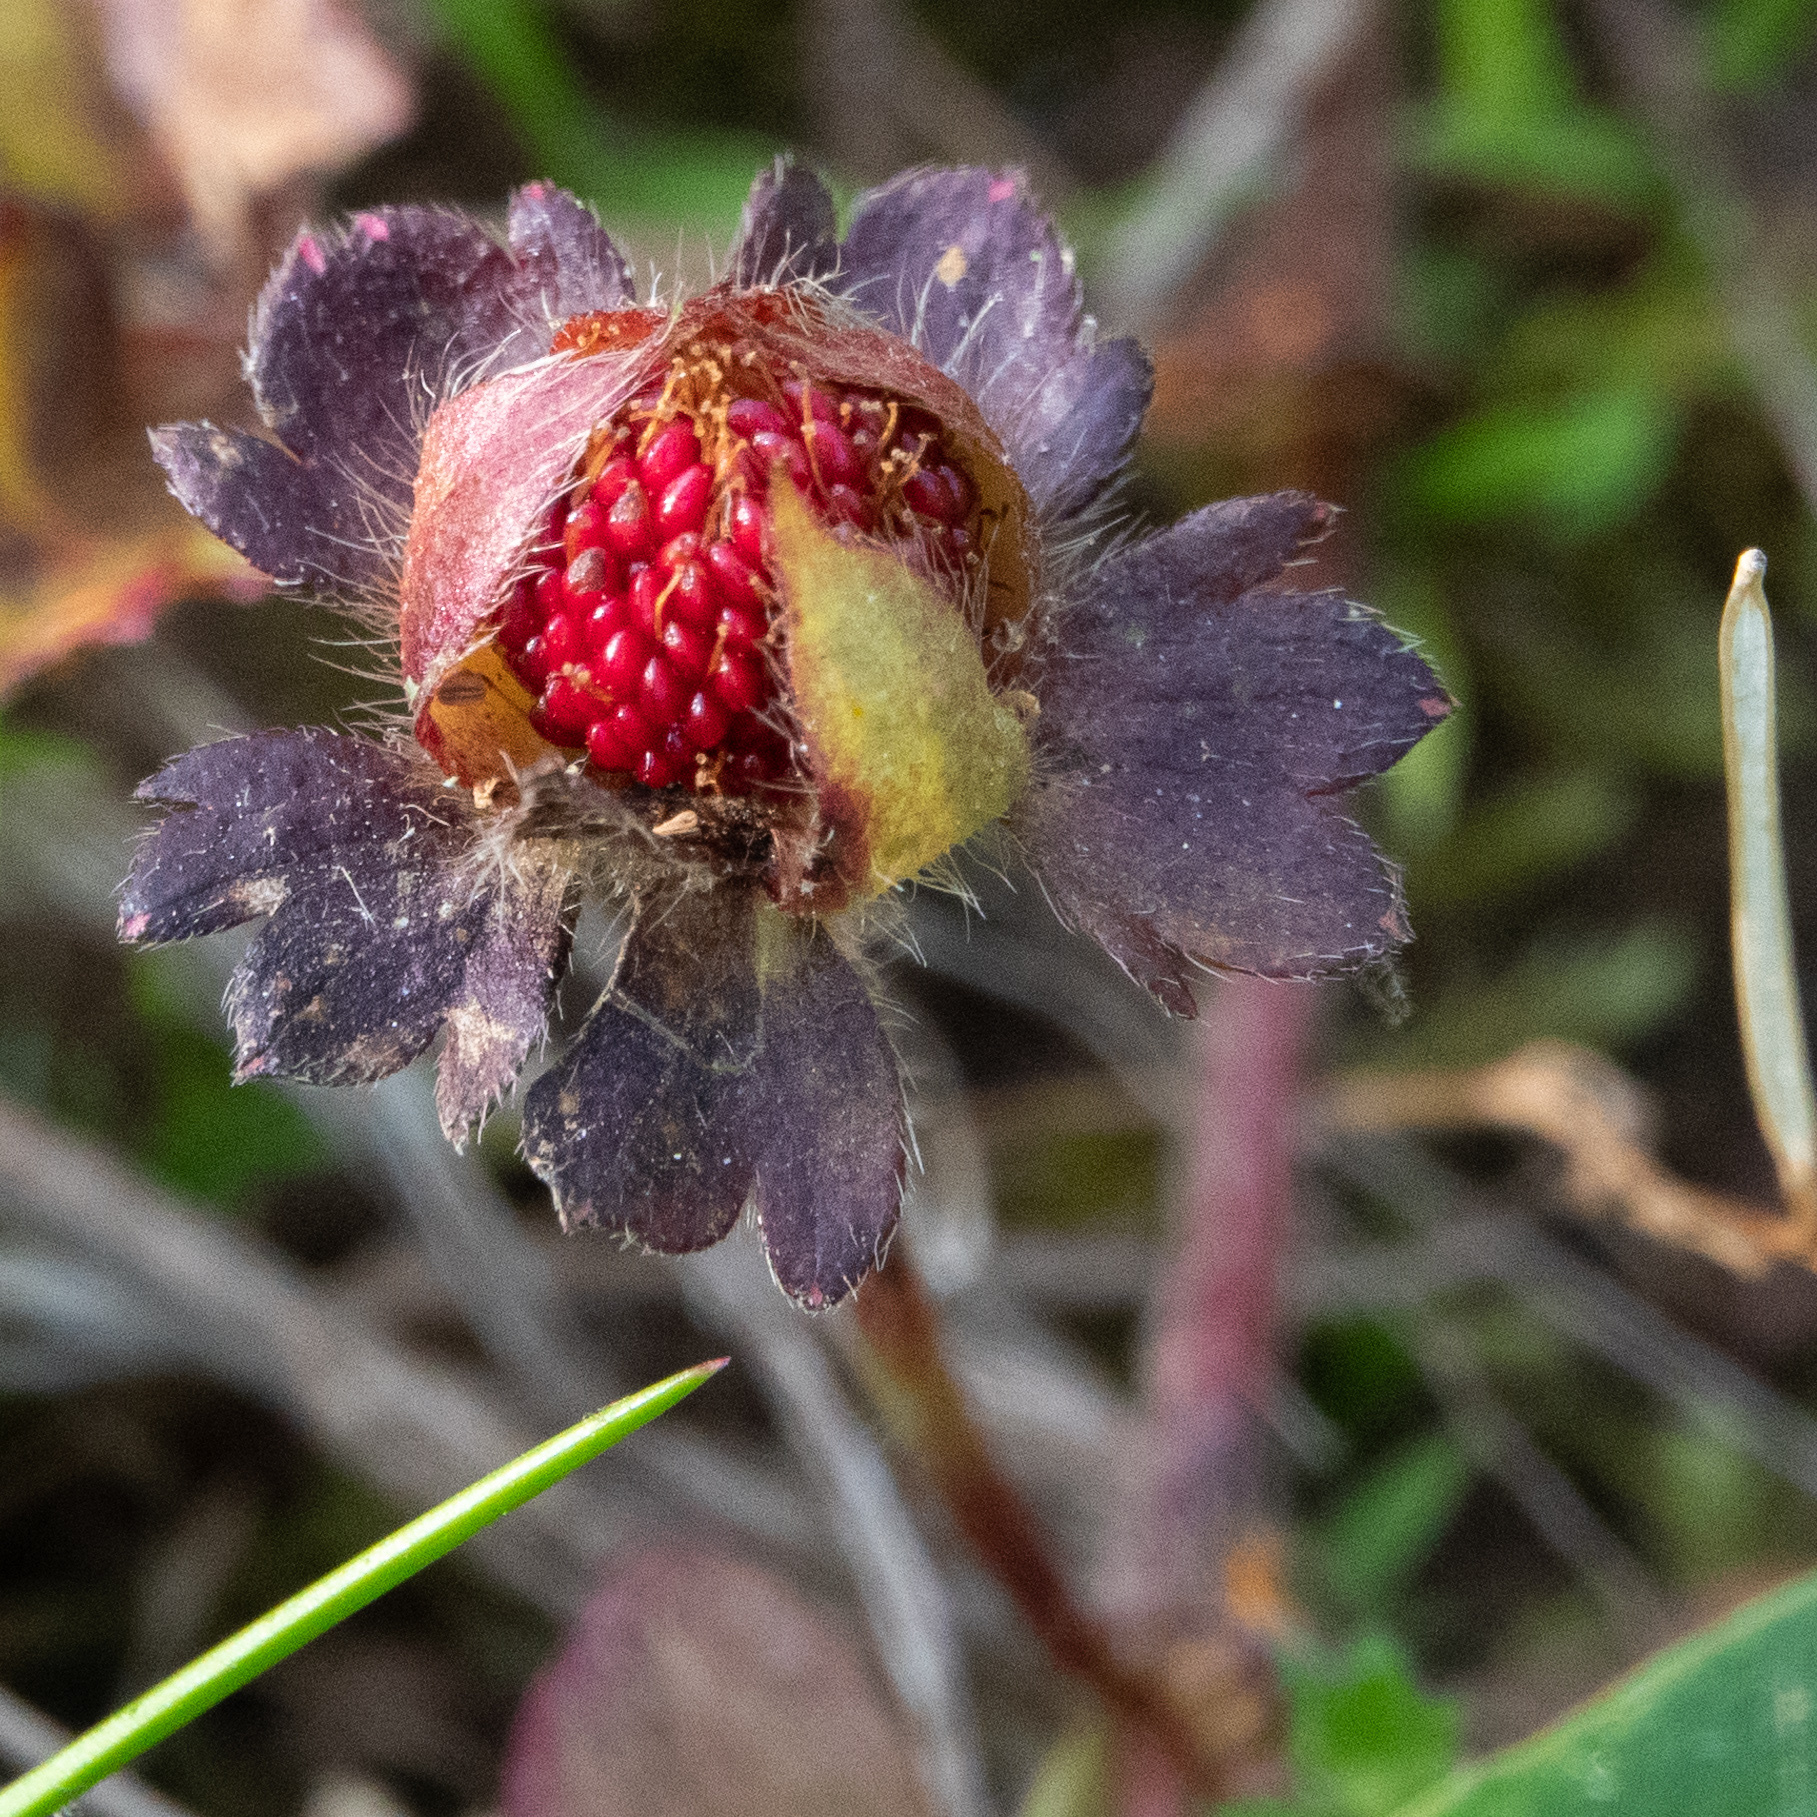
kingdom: Plantae
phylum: Tracheophyta
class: Magnoliopsida
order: Rosales
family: Rosaceae
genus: Potentilla
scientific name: Potentilla indica
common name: Yellow-flowered strawberry
